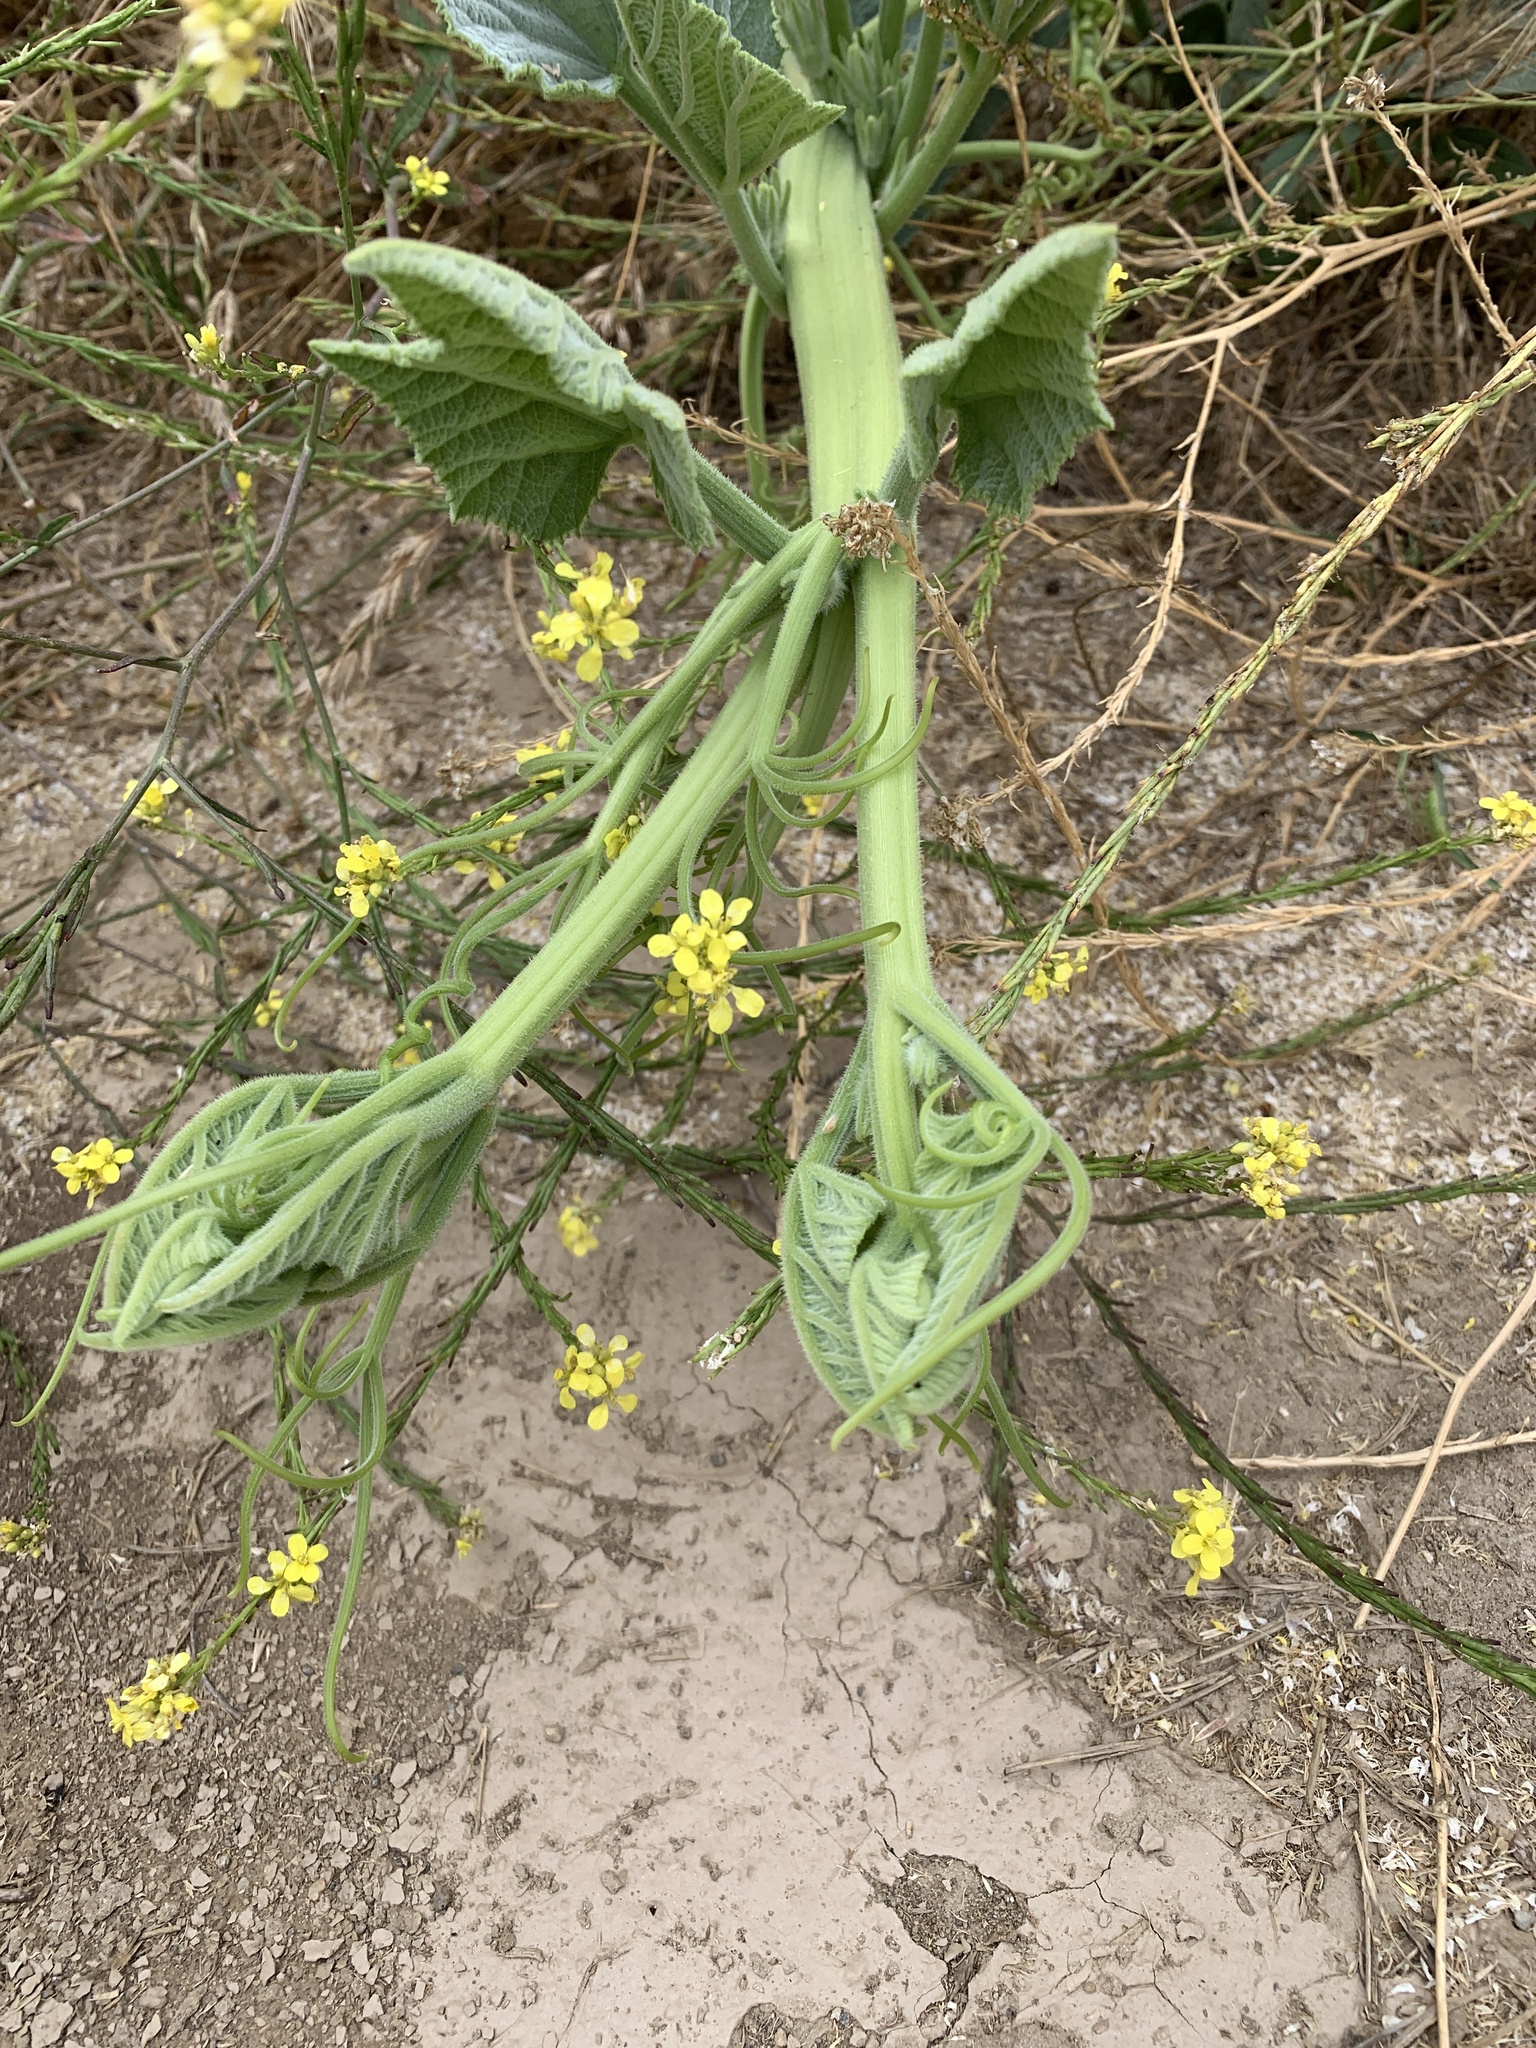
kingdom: Plantae
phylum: Tracheophyta
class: Magnoliopsida
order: Cucurbitales
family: Cucurbitaceae
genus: Cucurbita
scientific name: Cucurbita foetidissima
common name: Buffalo gourd
